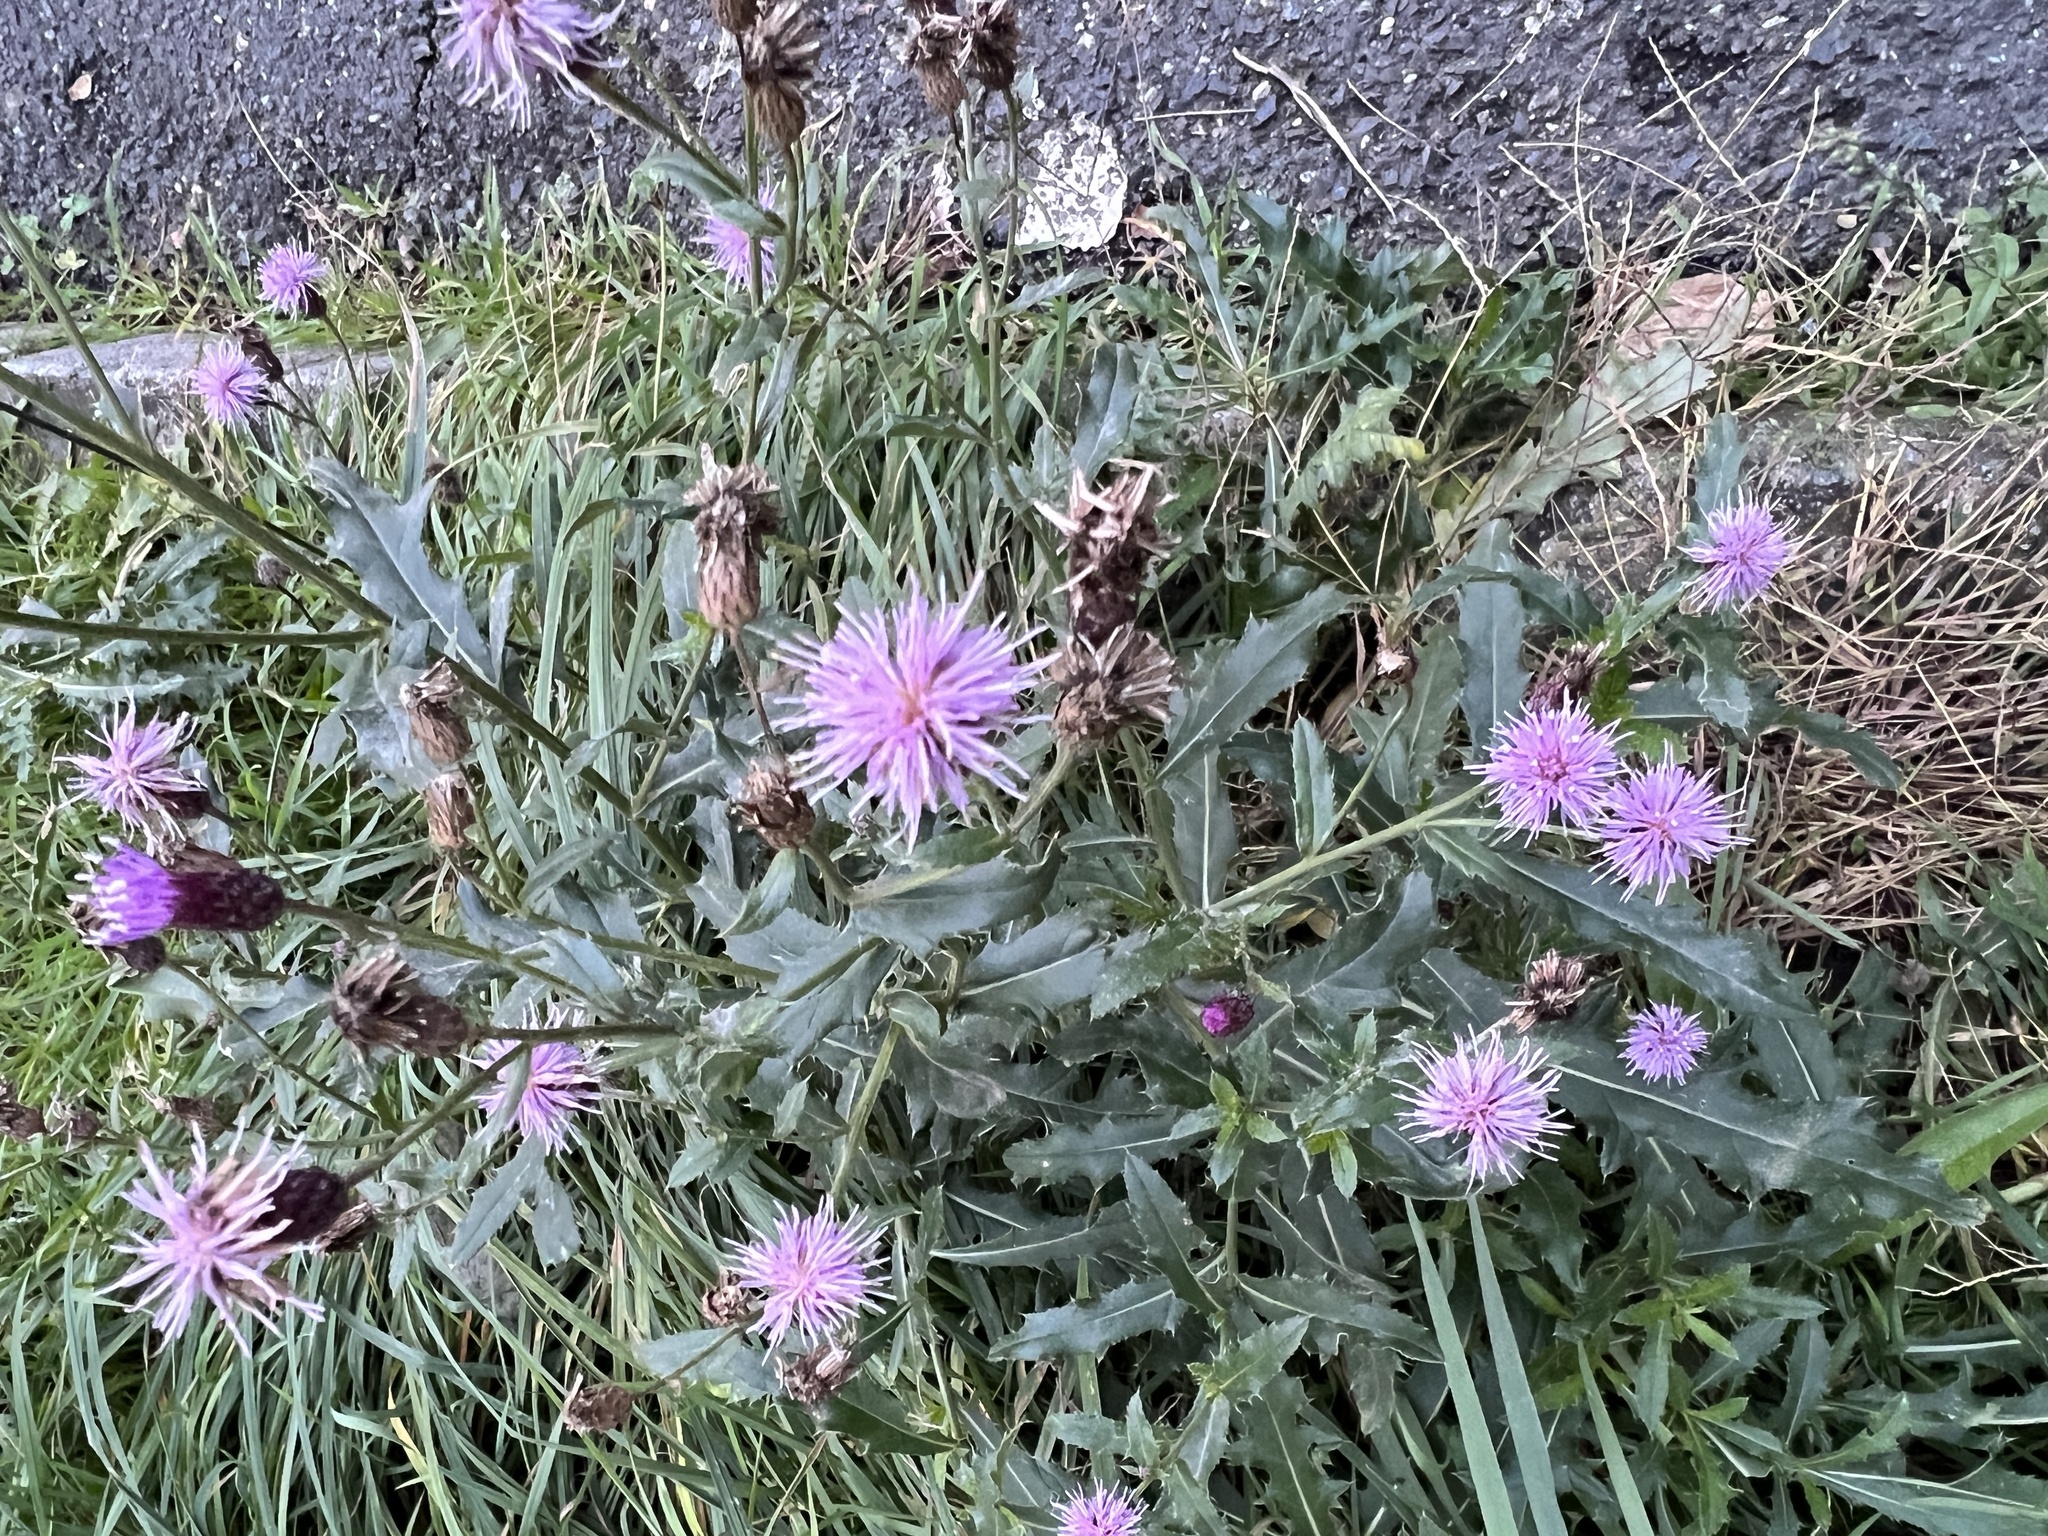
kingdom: Plantae
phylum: Tracheophyta
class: Magnoliopsida
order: Asterales
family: Asteraceae
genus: Cirsium
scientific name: Cirsium arvense
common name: Creeping thistle
